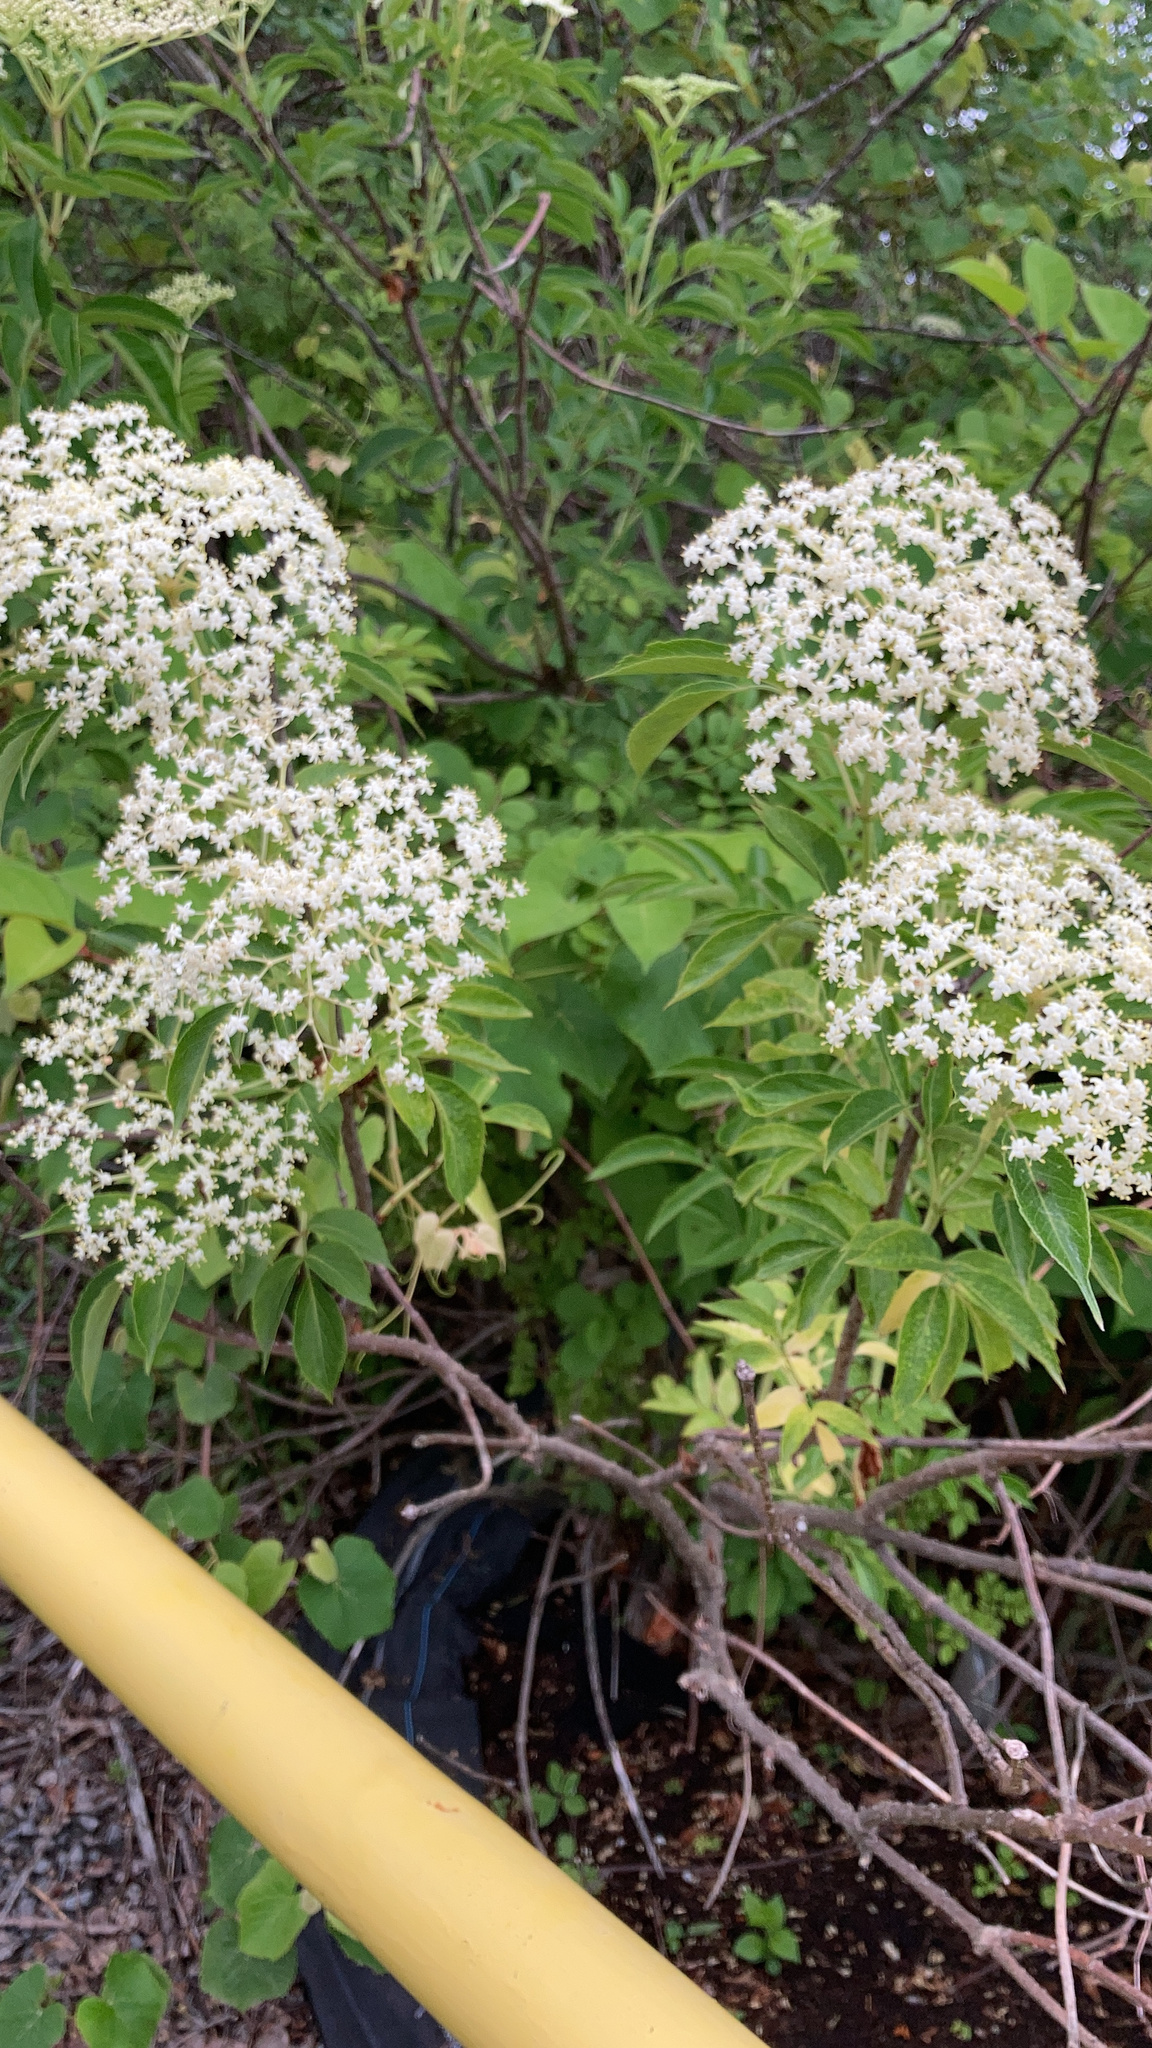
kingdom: Plantae
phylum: Tracheophyta
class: Magnoliopsida
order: Dipsacales
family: Viburnaceae
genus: Sambucus
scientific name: Sambucus canadensis
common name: American elder
